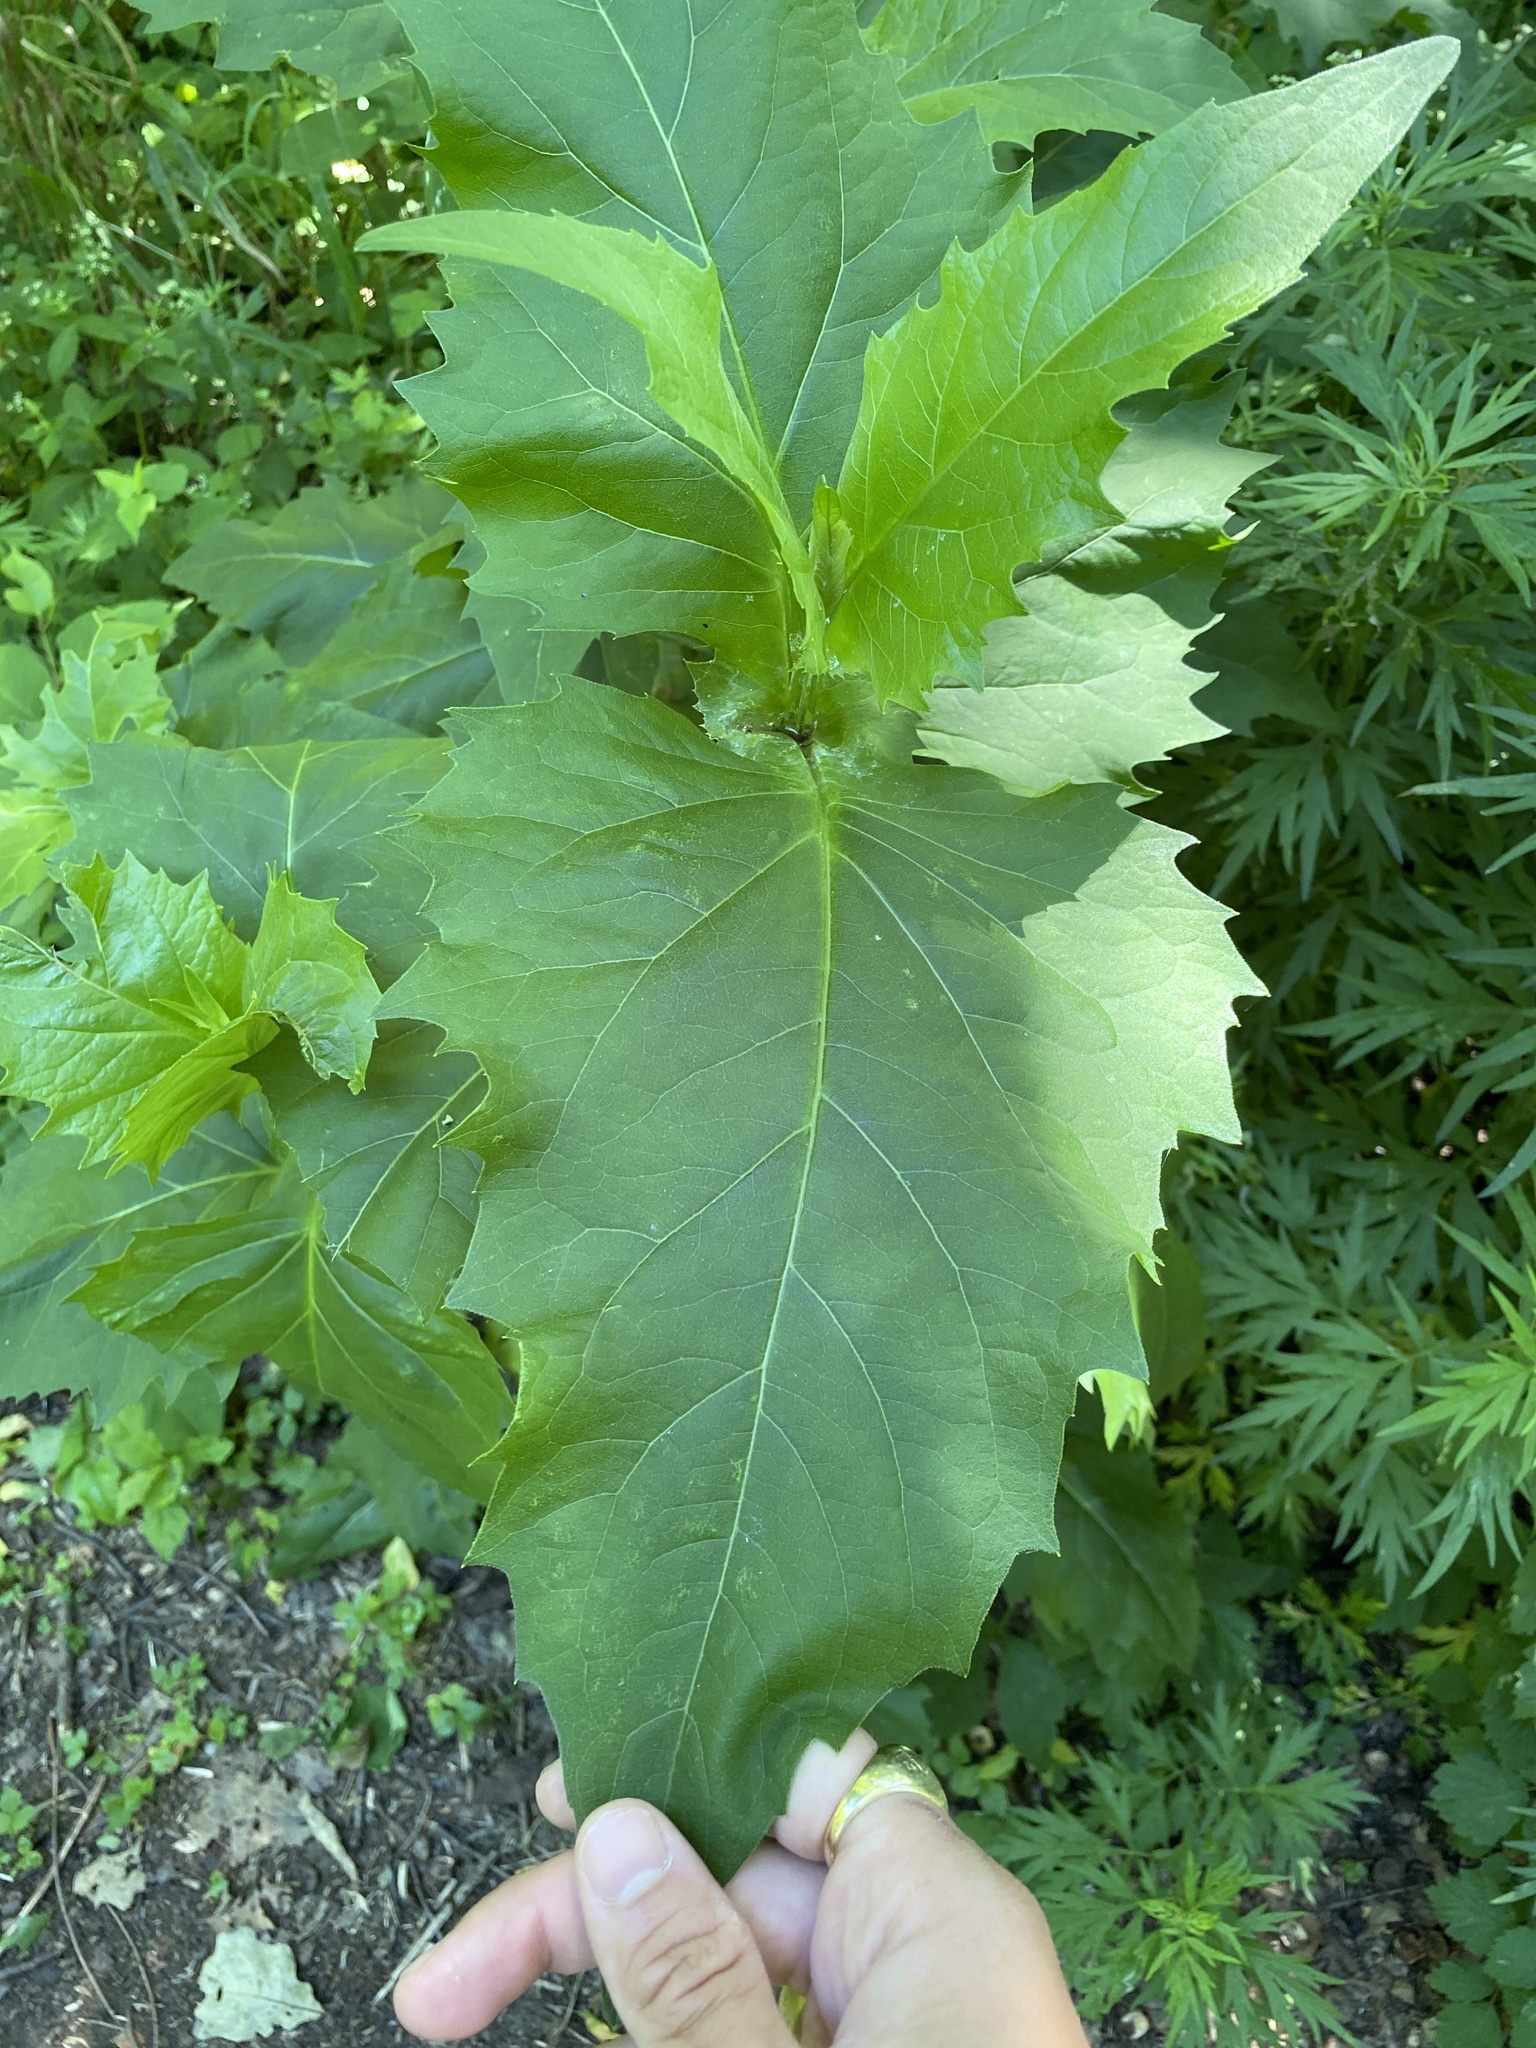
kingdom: Plantae
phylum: Tracheophyta
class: Magnoliopsida
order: Asterales
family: Asteraceae
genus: Silphium
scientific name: Silphium perfoliatum
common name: Cup-plant
